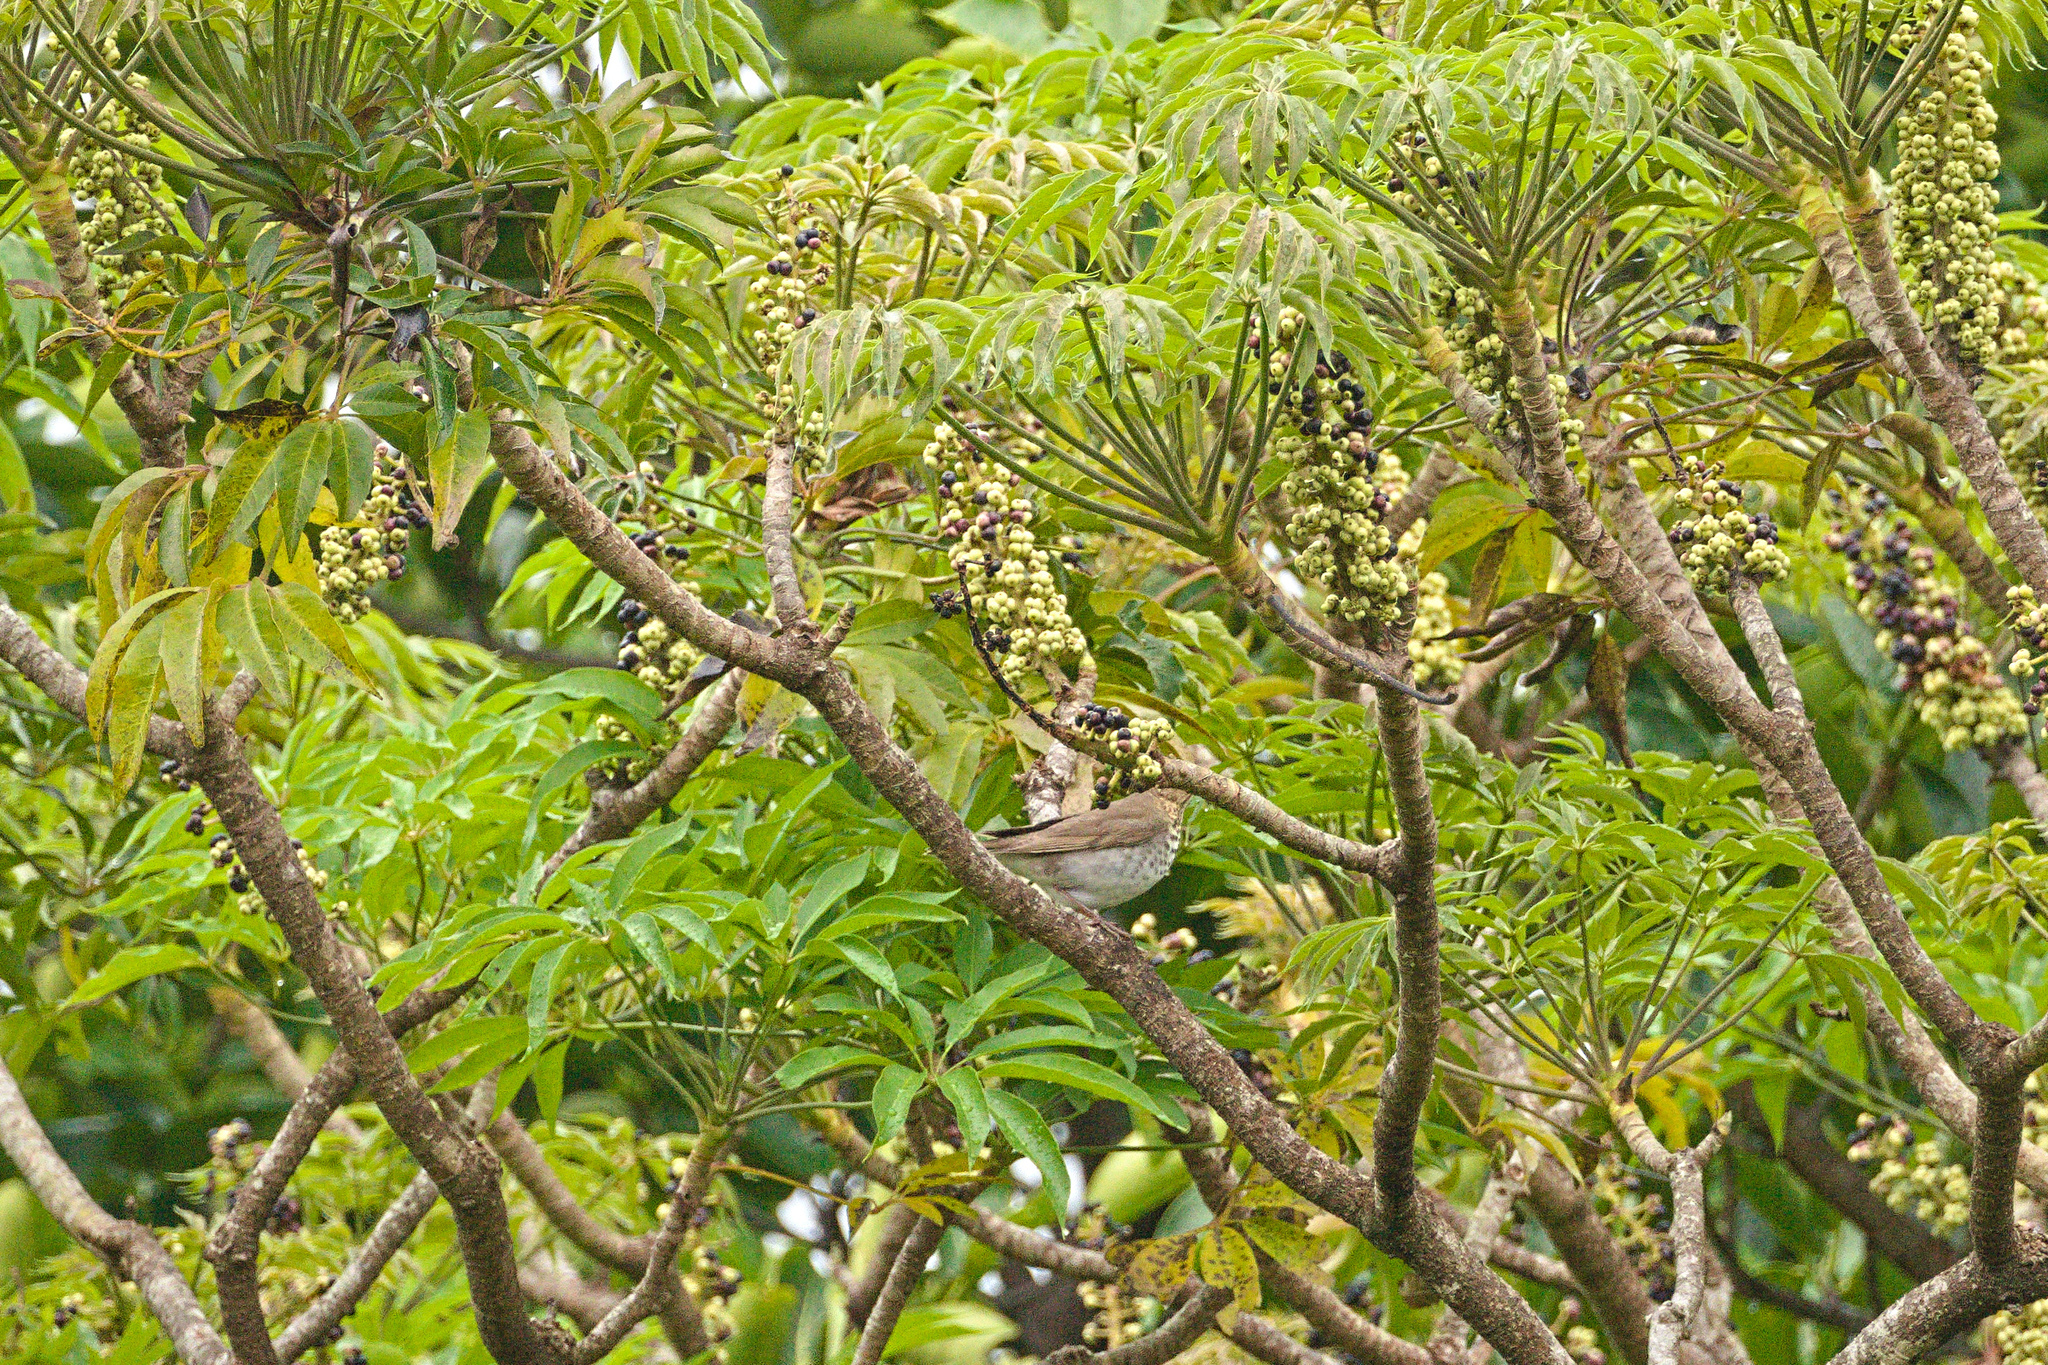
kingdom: Animalia
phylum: Chordata
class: Aves
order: Passeriformes
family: Turdidae
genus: Catharus
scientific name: Catharus ustulatus
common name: Swainson's thrush
